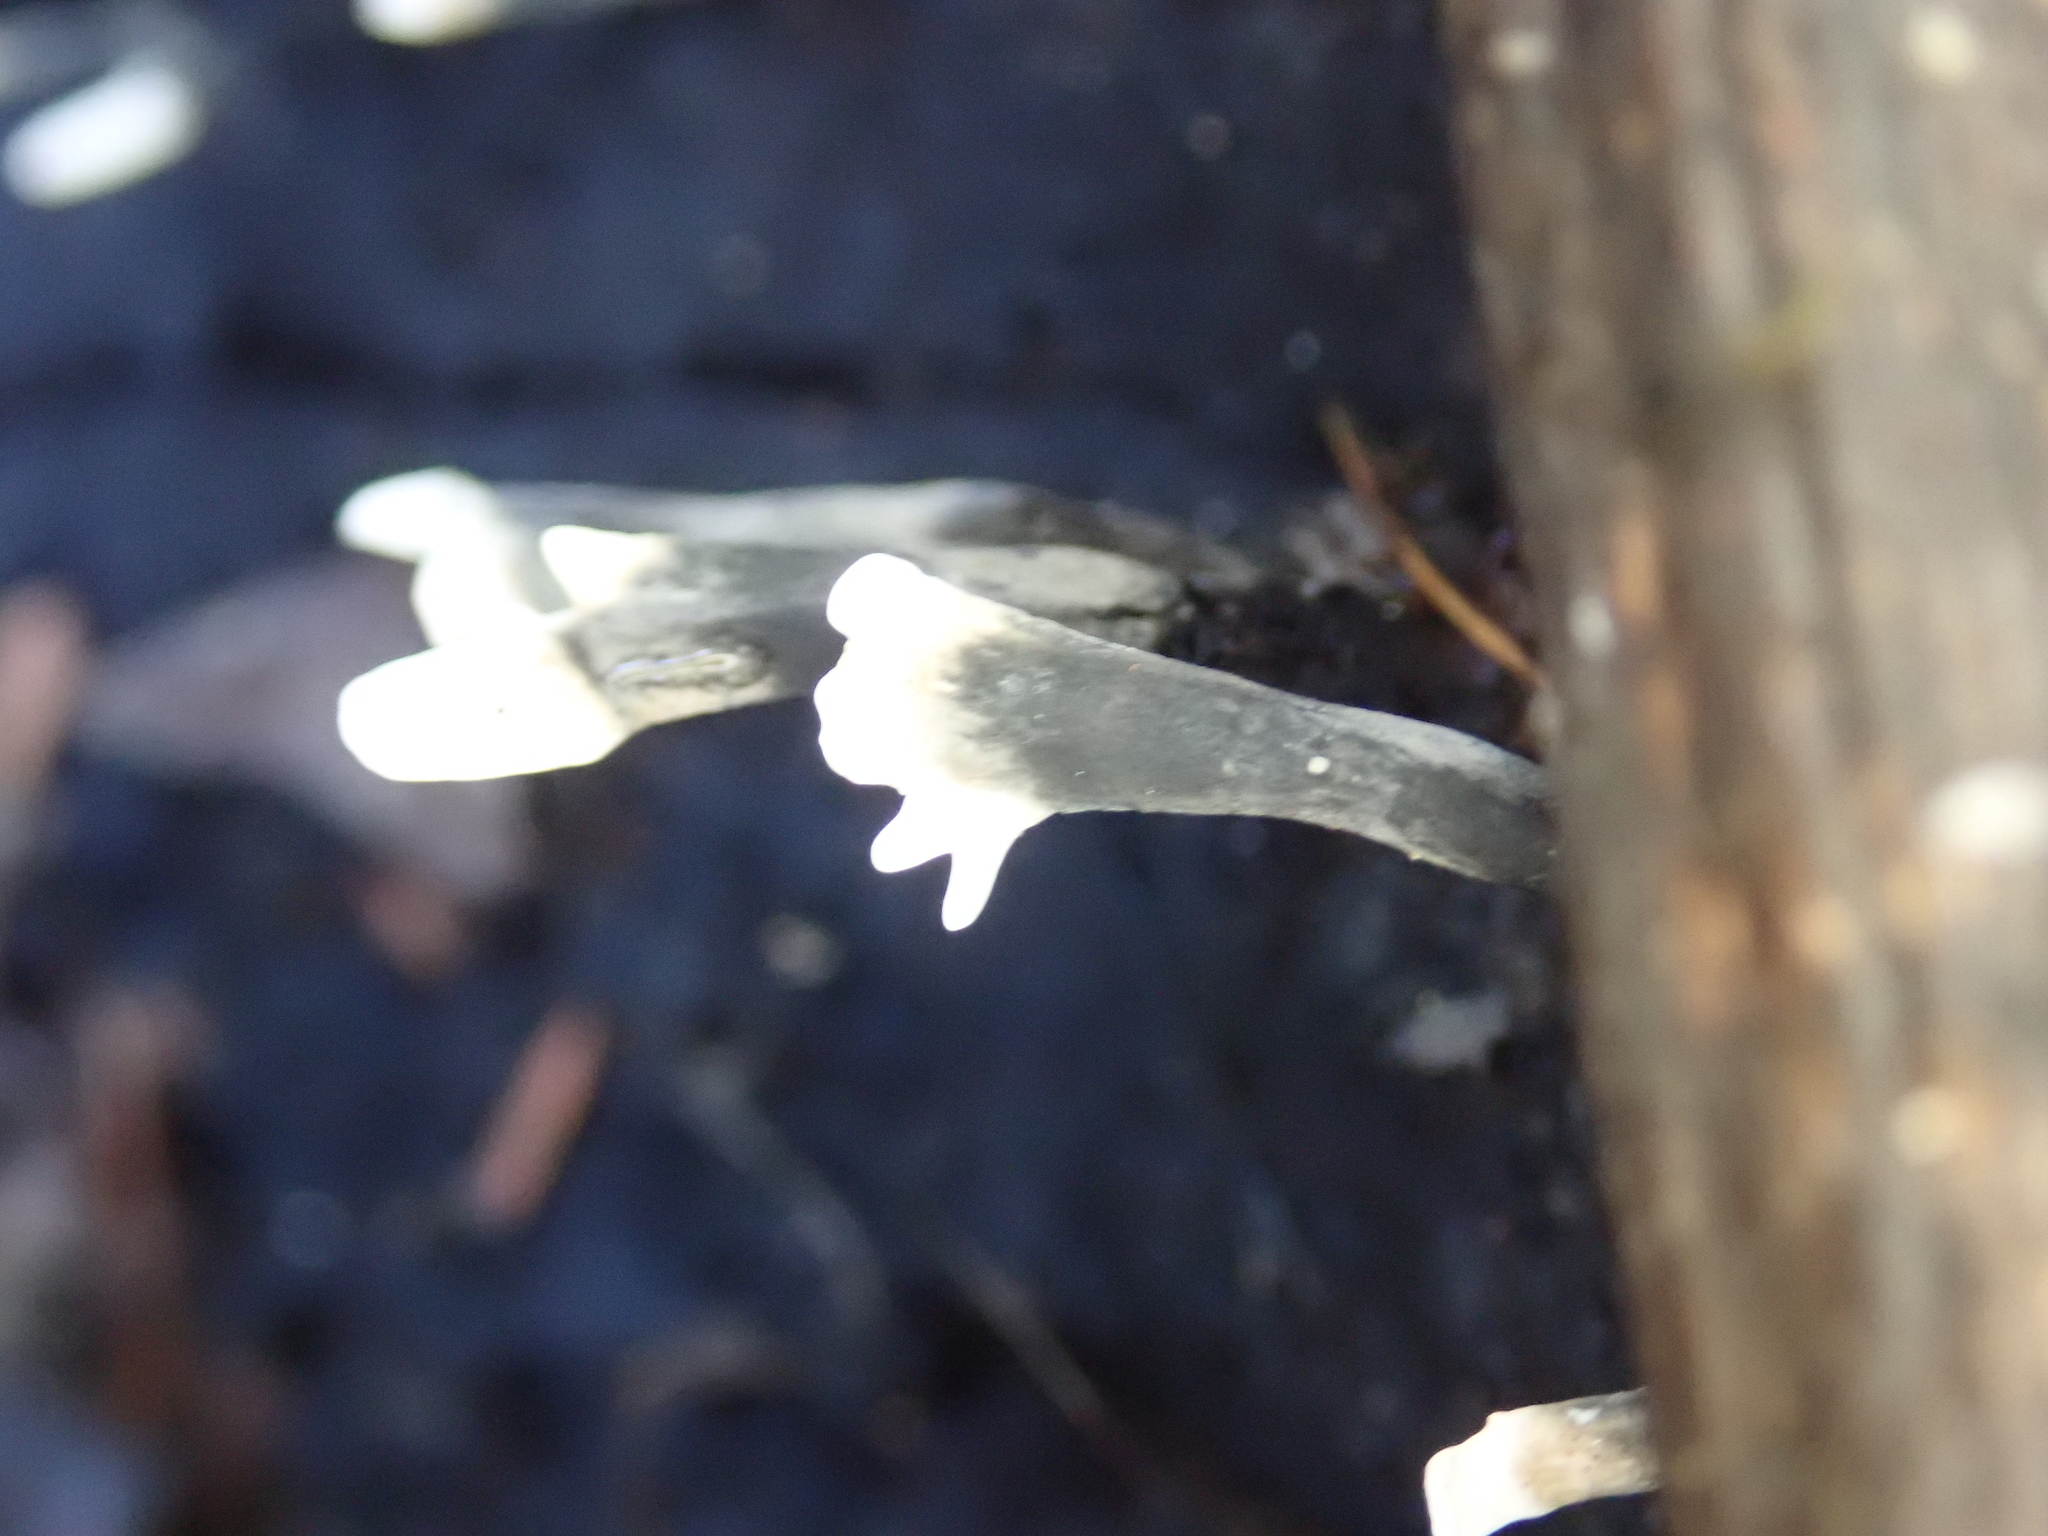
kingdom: Fungi
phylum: Ascomycota
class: Sordariomycetes
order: Xylariales
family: Xylariaceae
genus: Xylaria
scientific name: Xylaria hypoxylon
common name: Candle-snuff fungus
